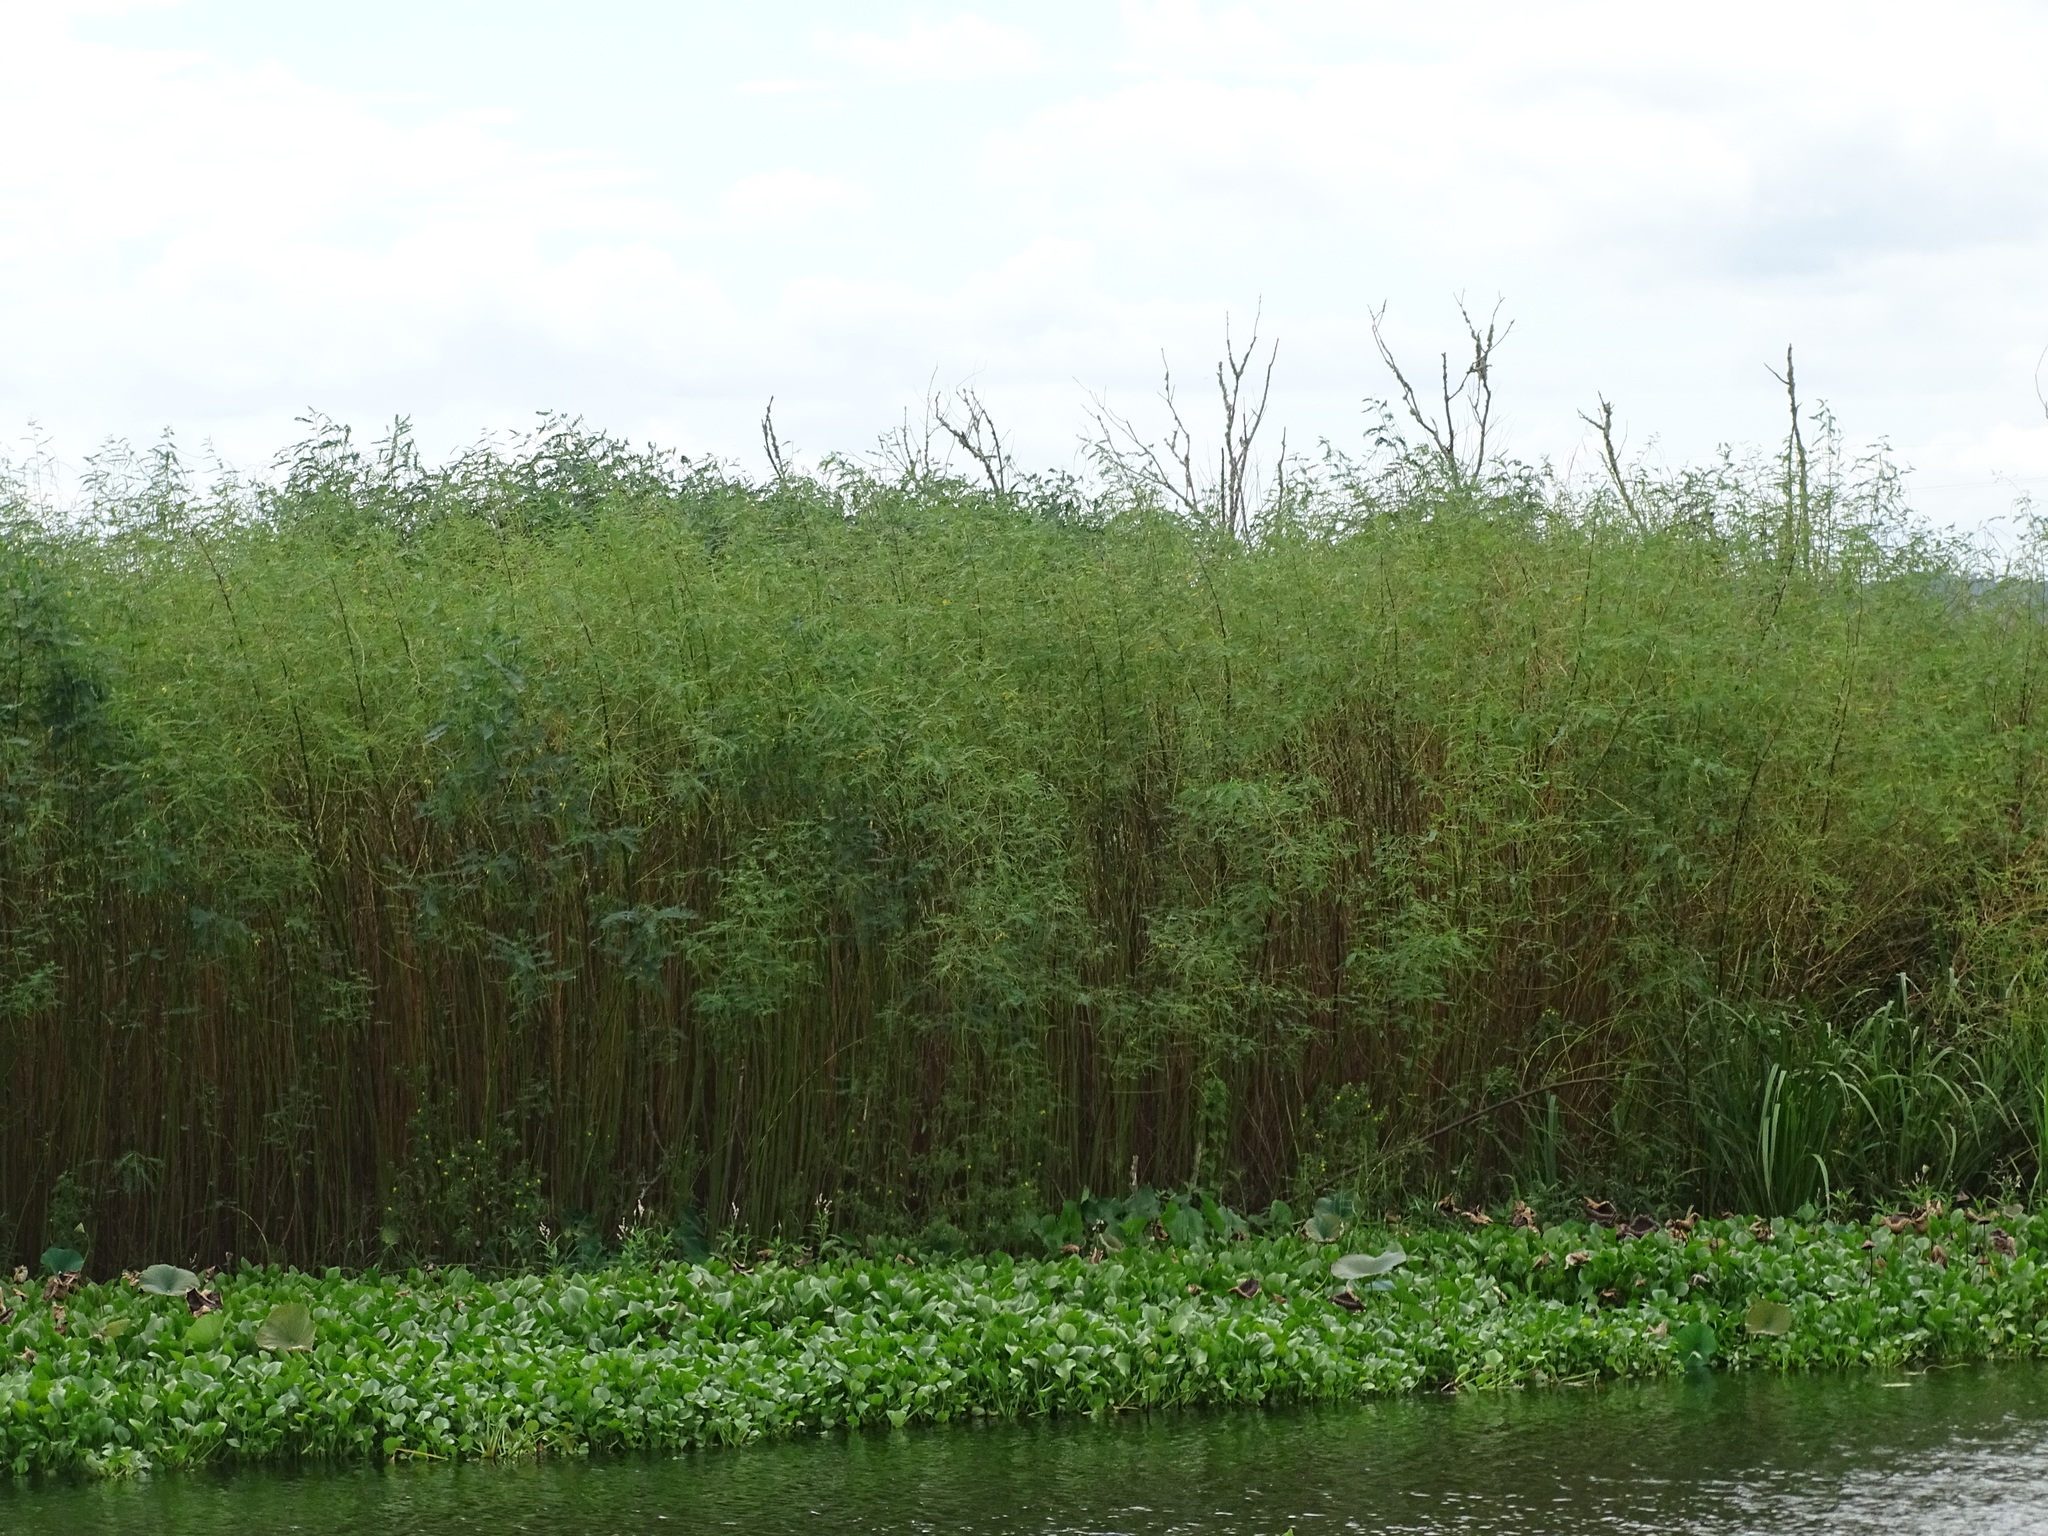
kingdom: Plantae
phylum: Tracheophyta
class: Magnoliopsida
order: Fabales
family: Fabaceae
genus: Sesbania
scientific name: Sesbania herbacea
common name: Bigpod sesbania
